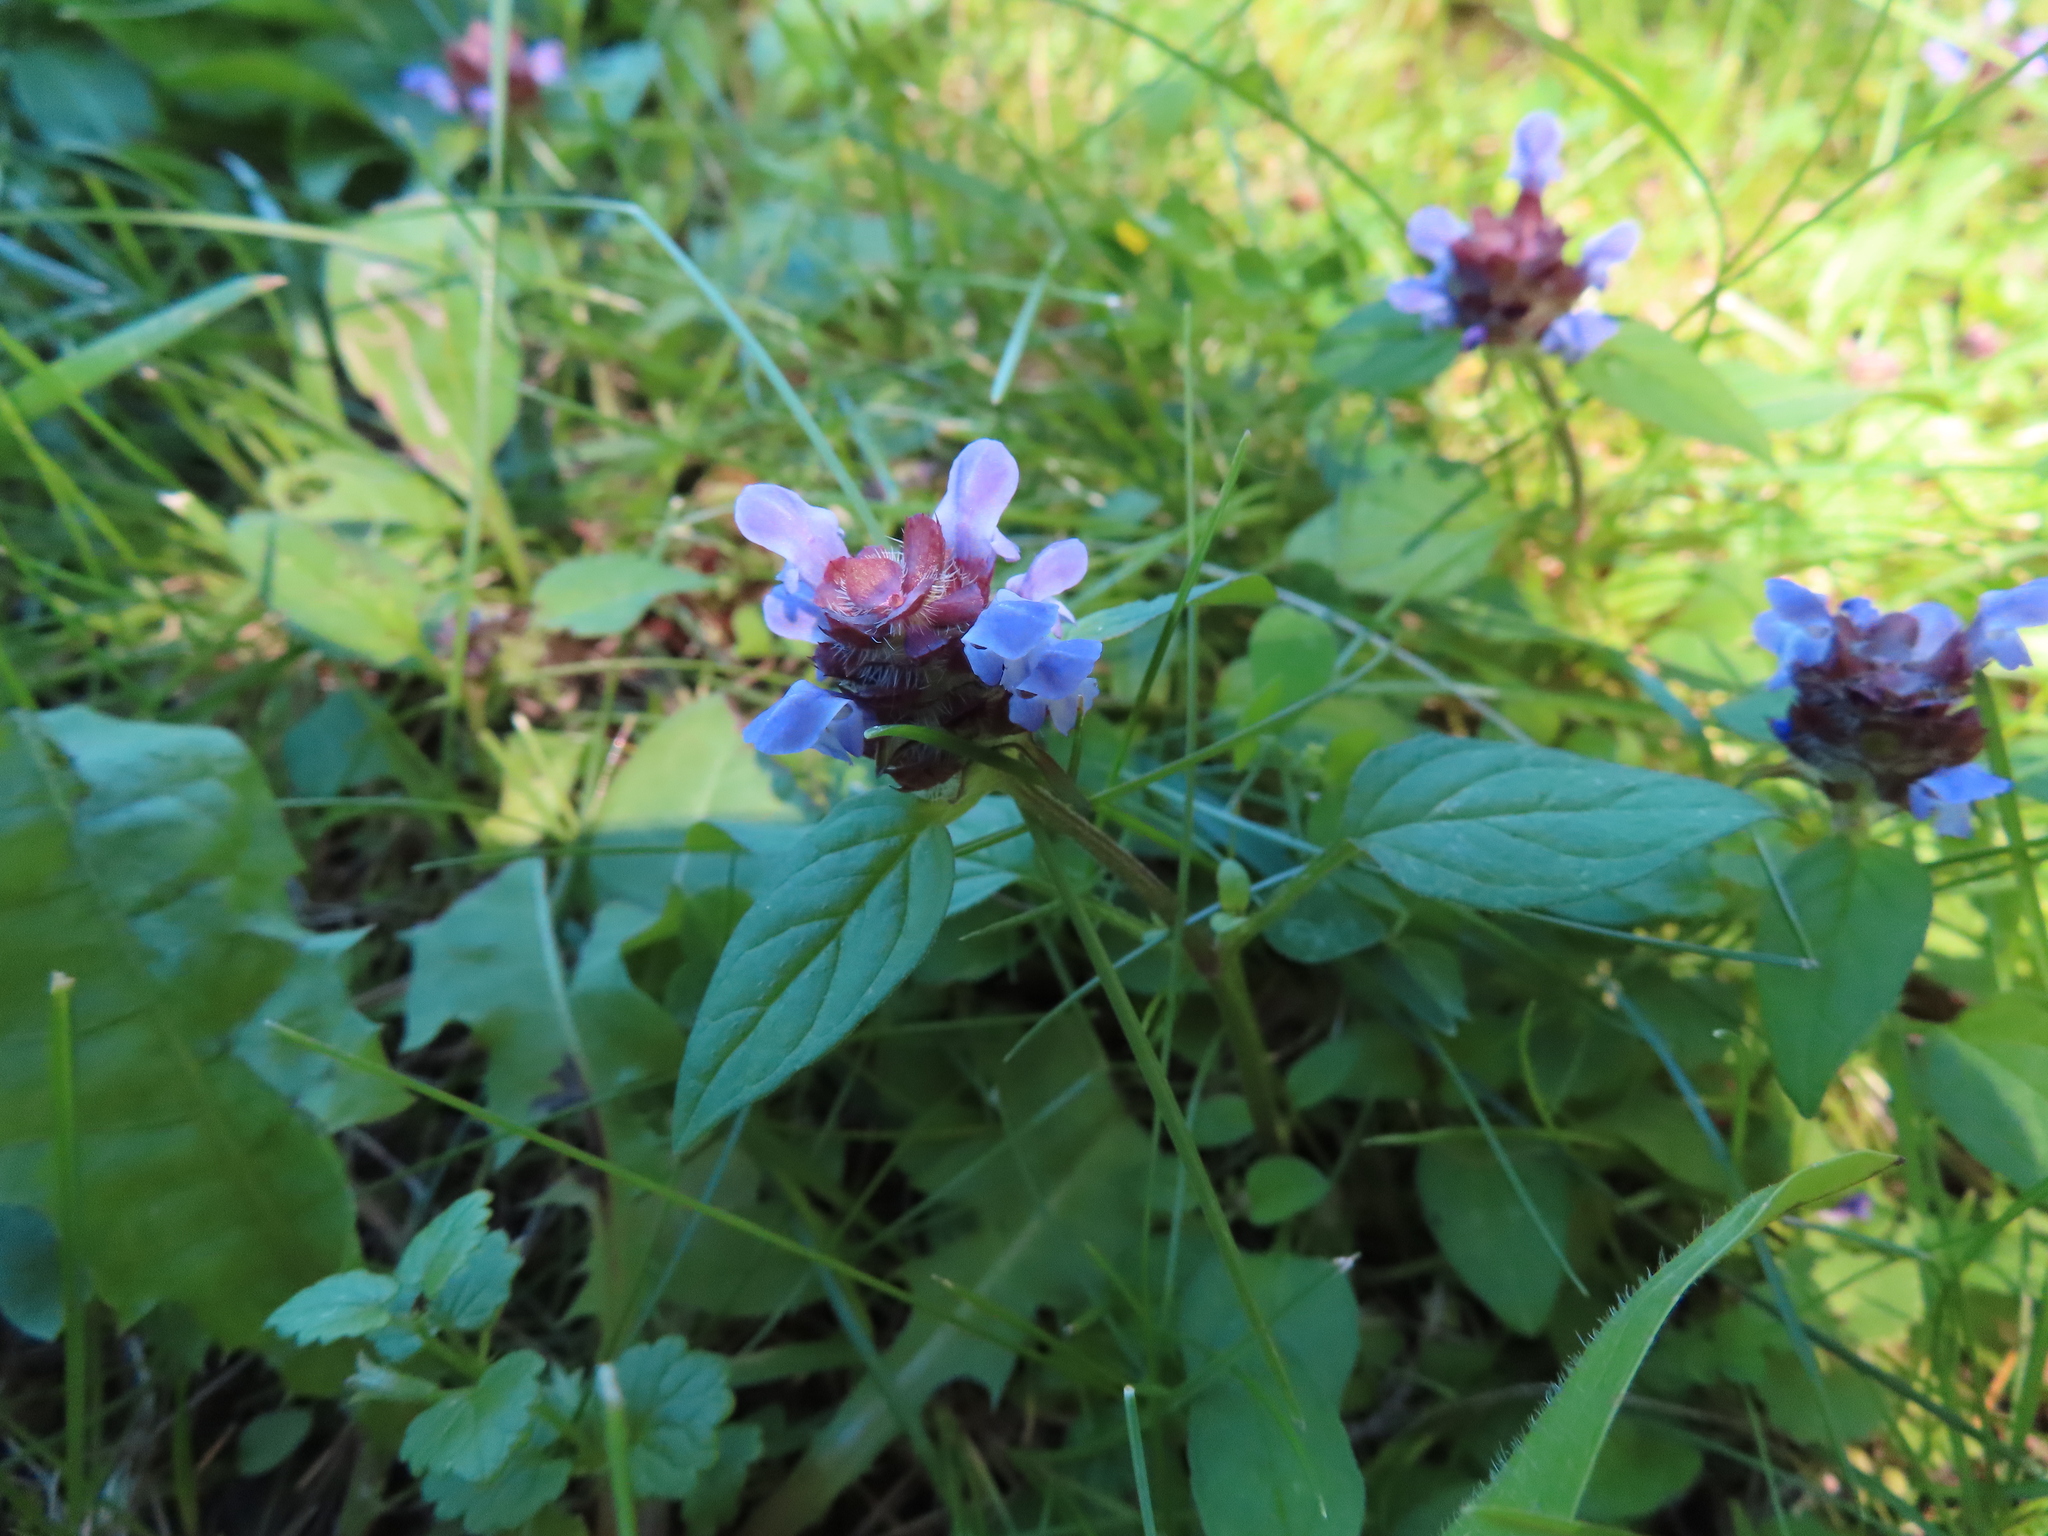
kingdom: Plantae
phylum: Tracheophyta
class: Magnoliopsida
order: Lamiales
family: Lamiaceae
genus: Prunella
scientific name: Prunella vulgaris
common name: Heal-all
